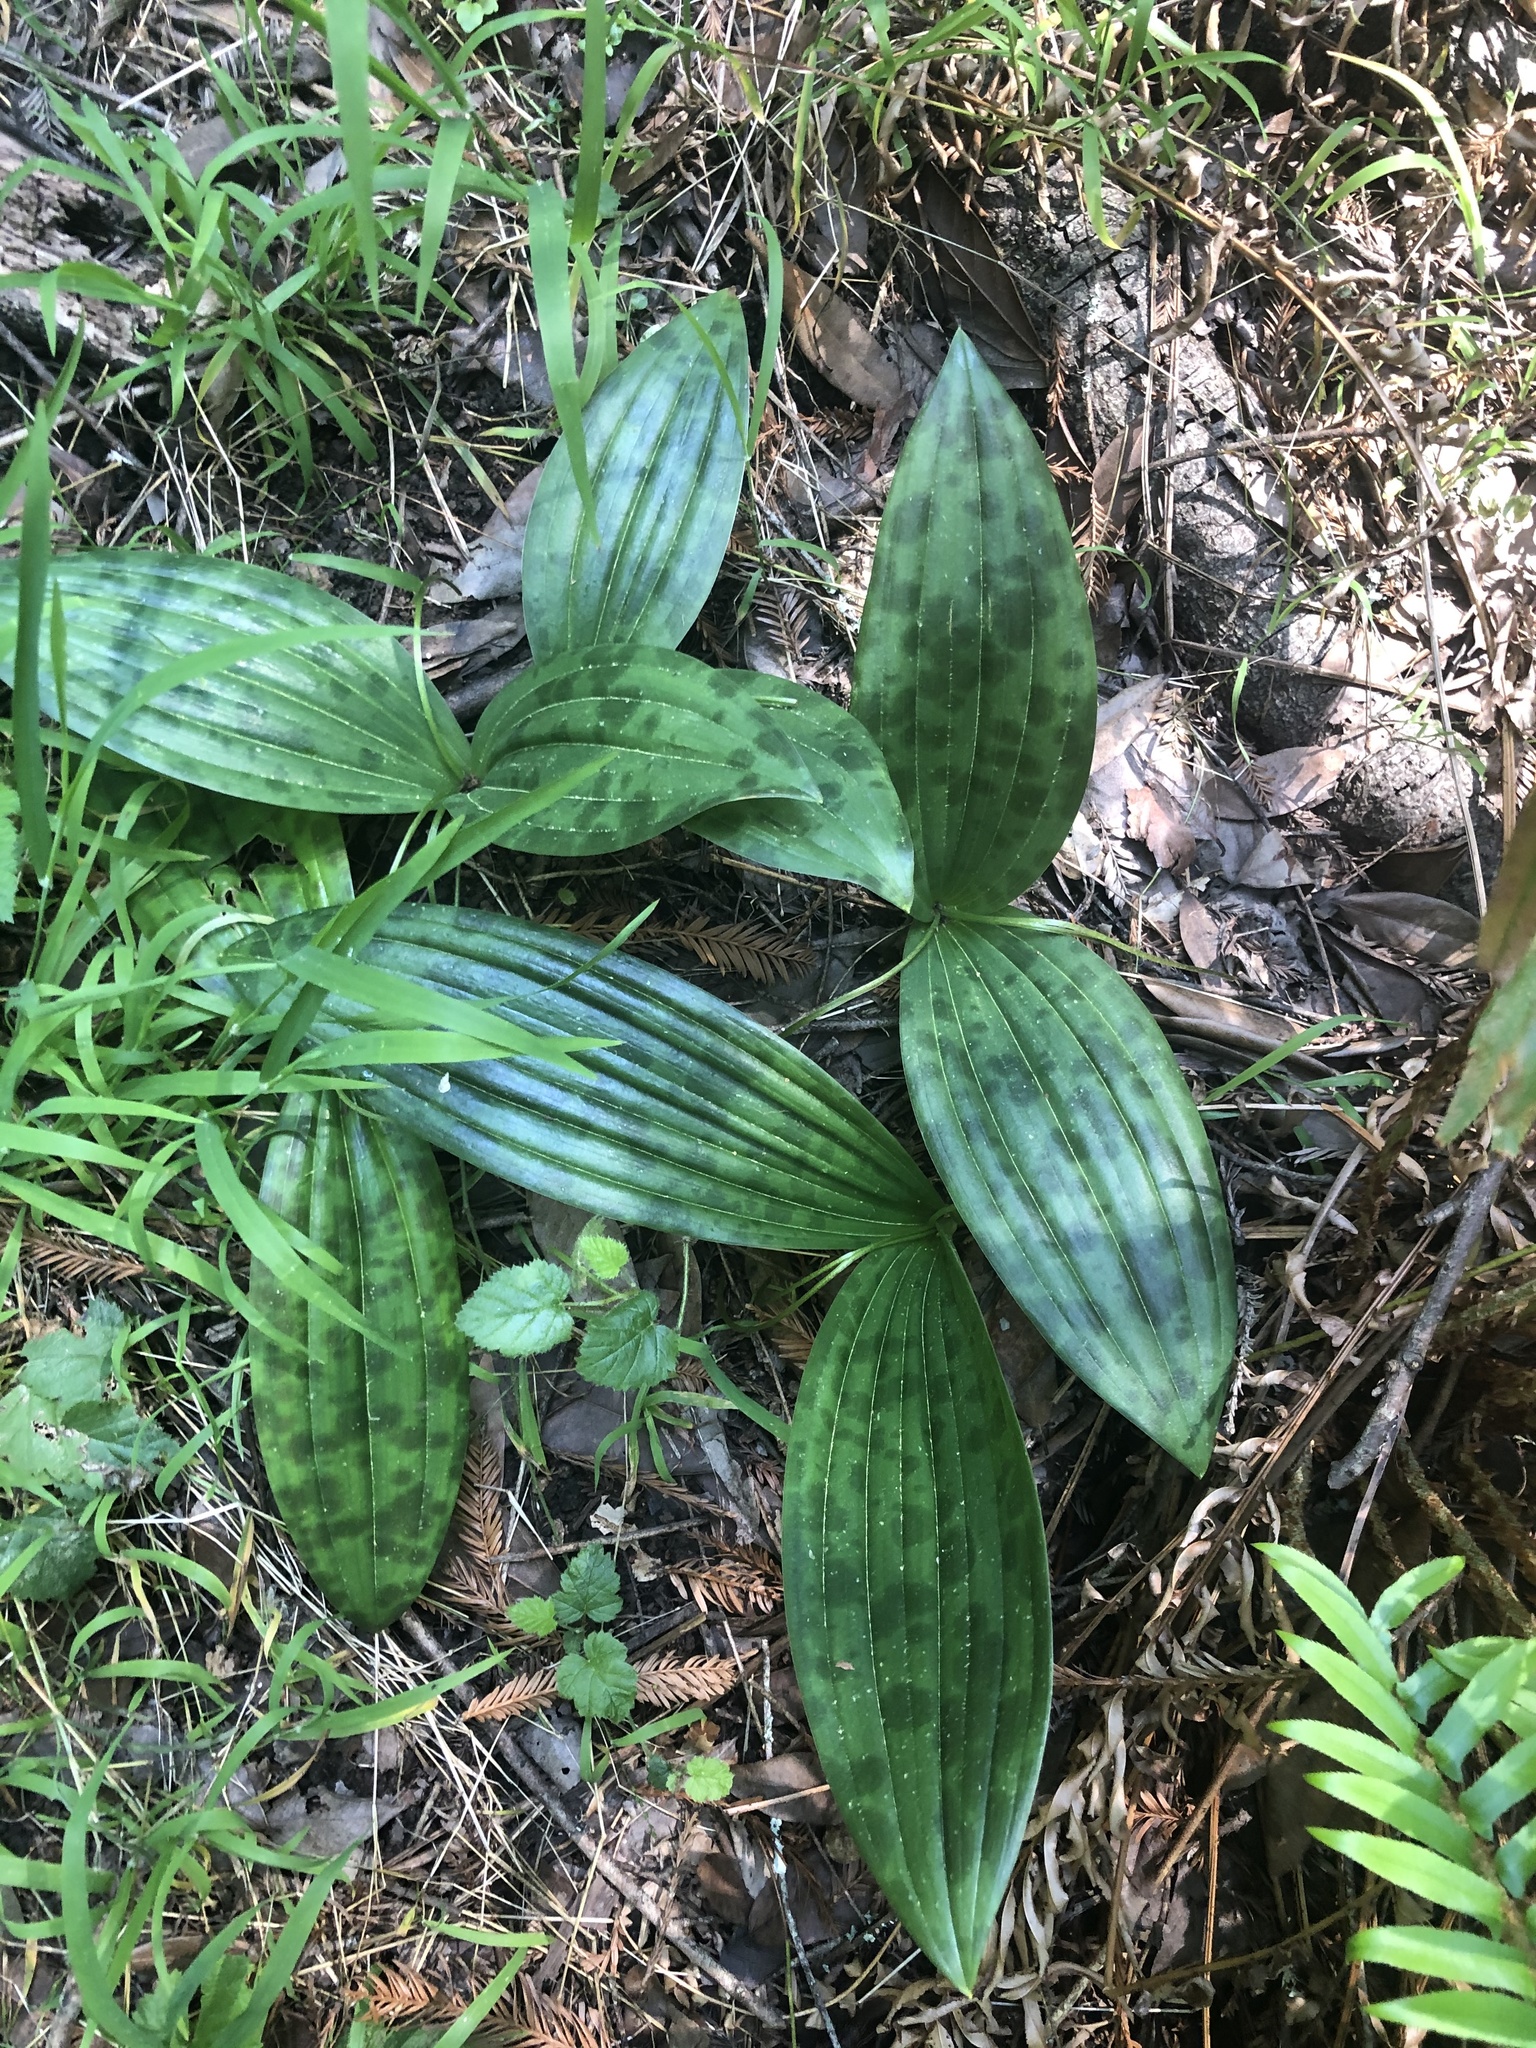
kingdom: Plantae
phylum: Tracheophyta
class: Liliopsida
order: Liliales
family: Liliaceae
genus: Scoliopus
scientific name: Scoliopus bigelovii
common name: Foetid adder's-tongue
